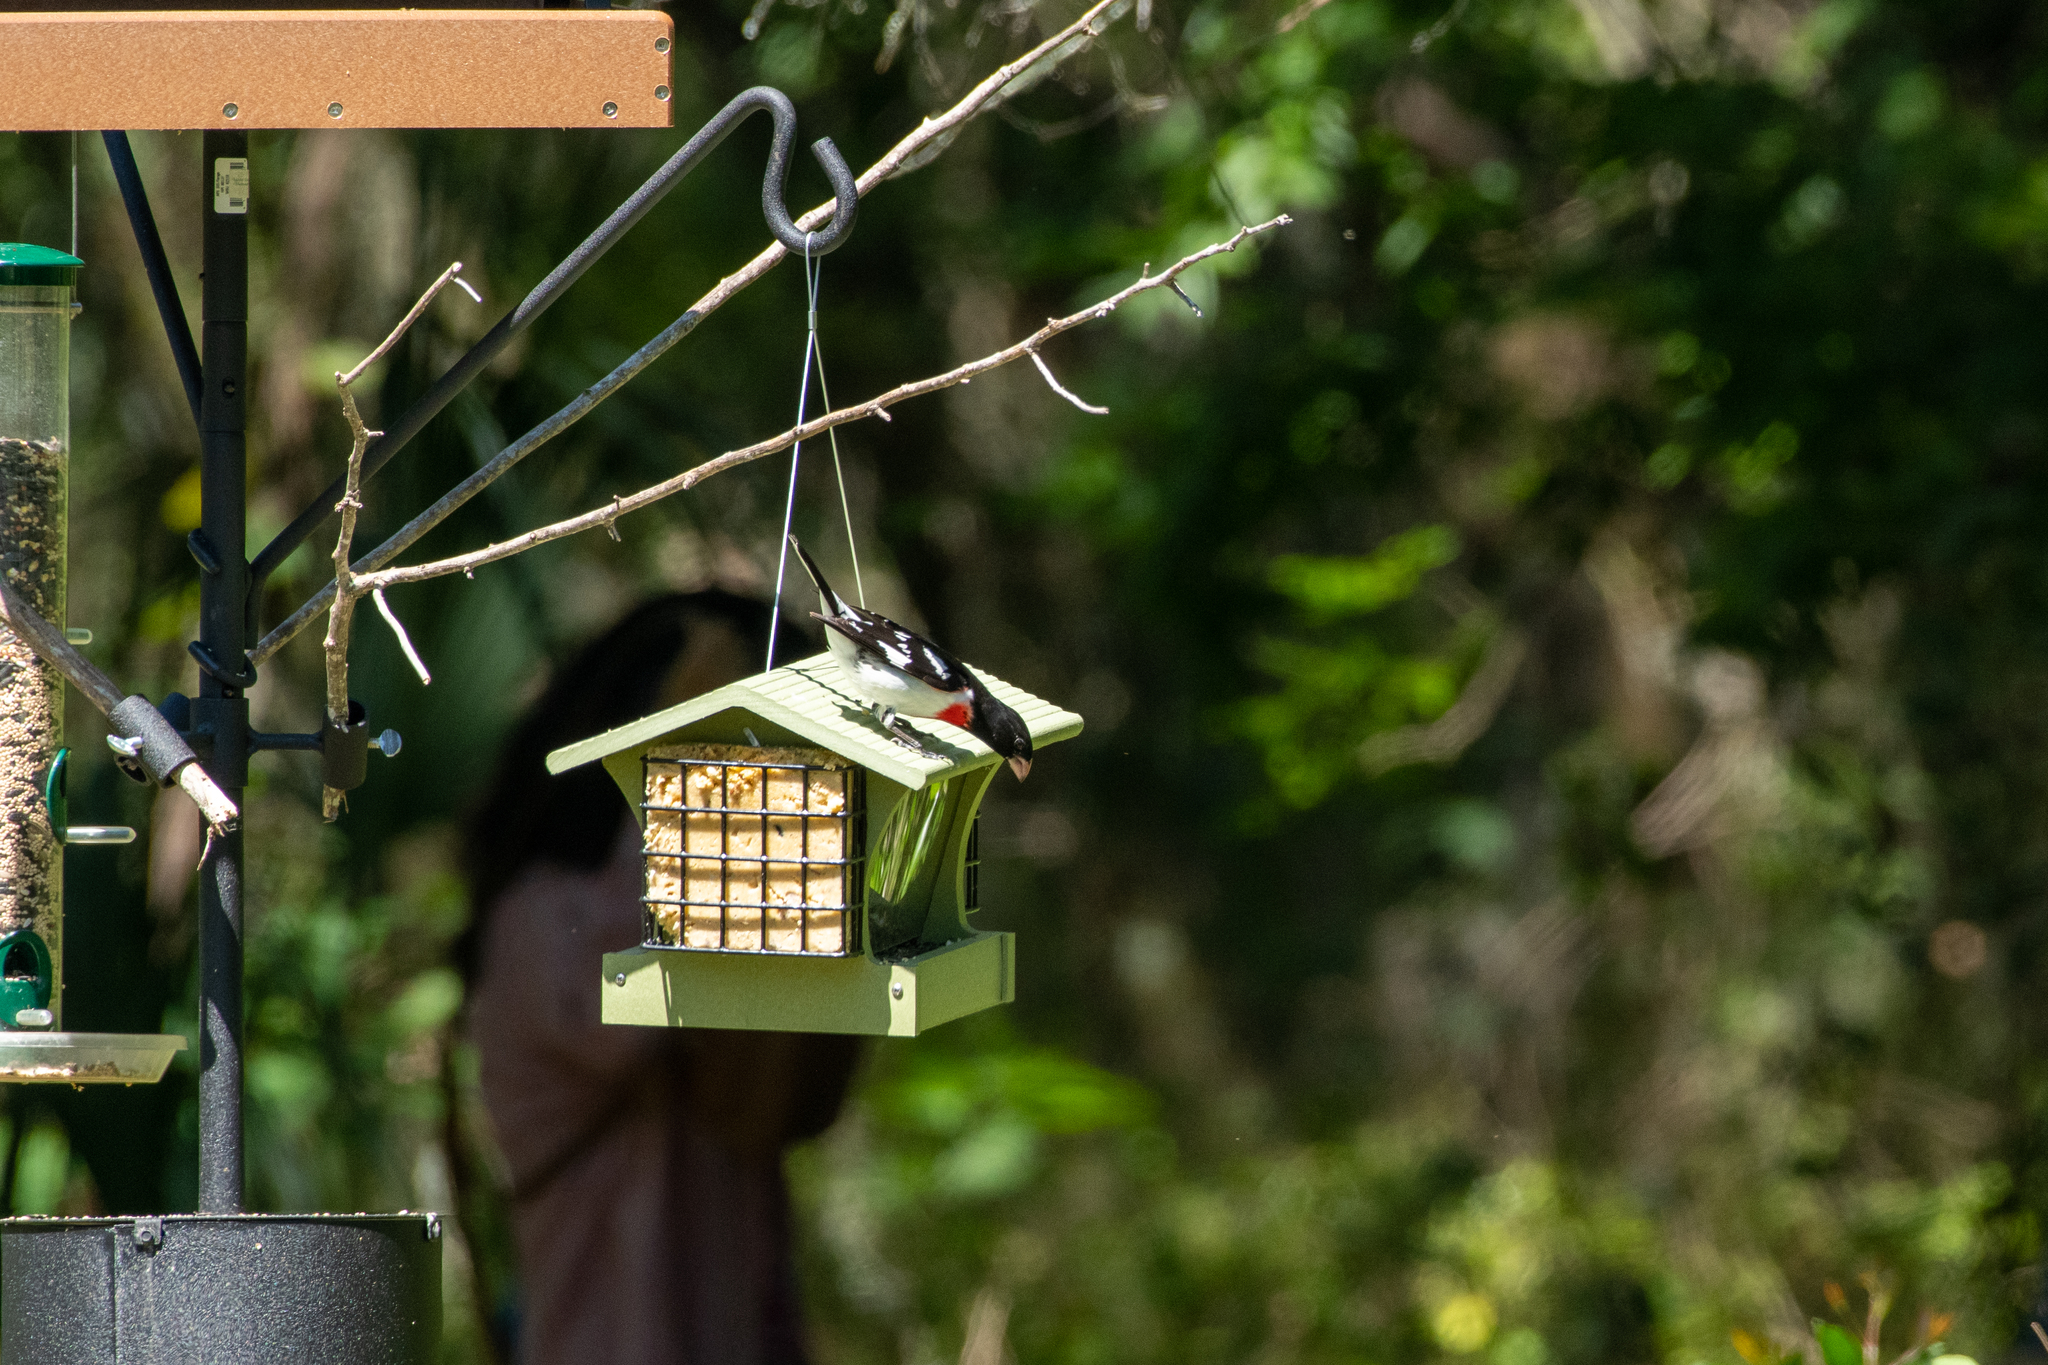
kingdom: Animalia
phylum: Chordata
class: Aves
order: Passeriformes
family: Cardinalidae
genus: Pheucticus
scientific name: Pheucticus ludovicianus
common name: Rose-breasted grosbeak
